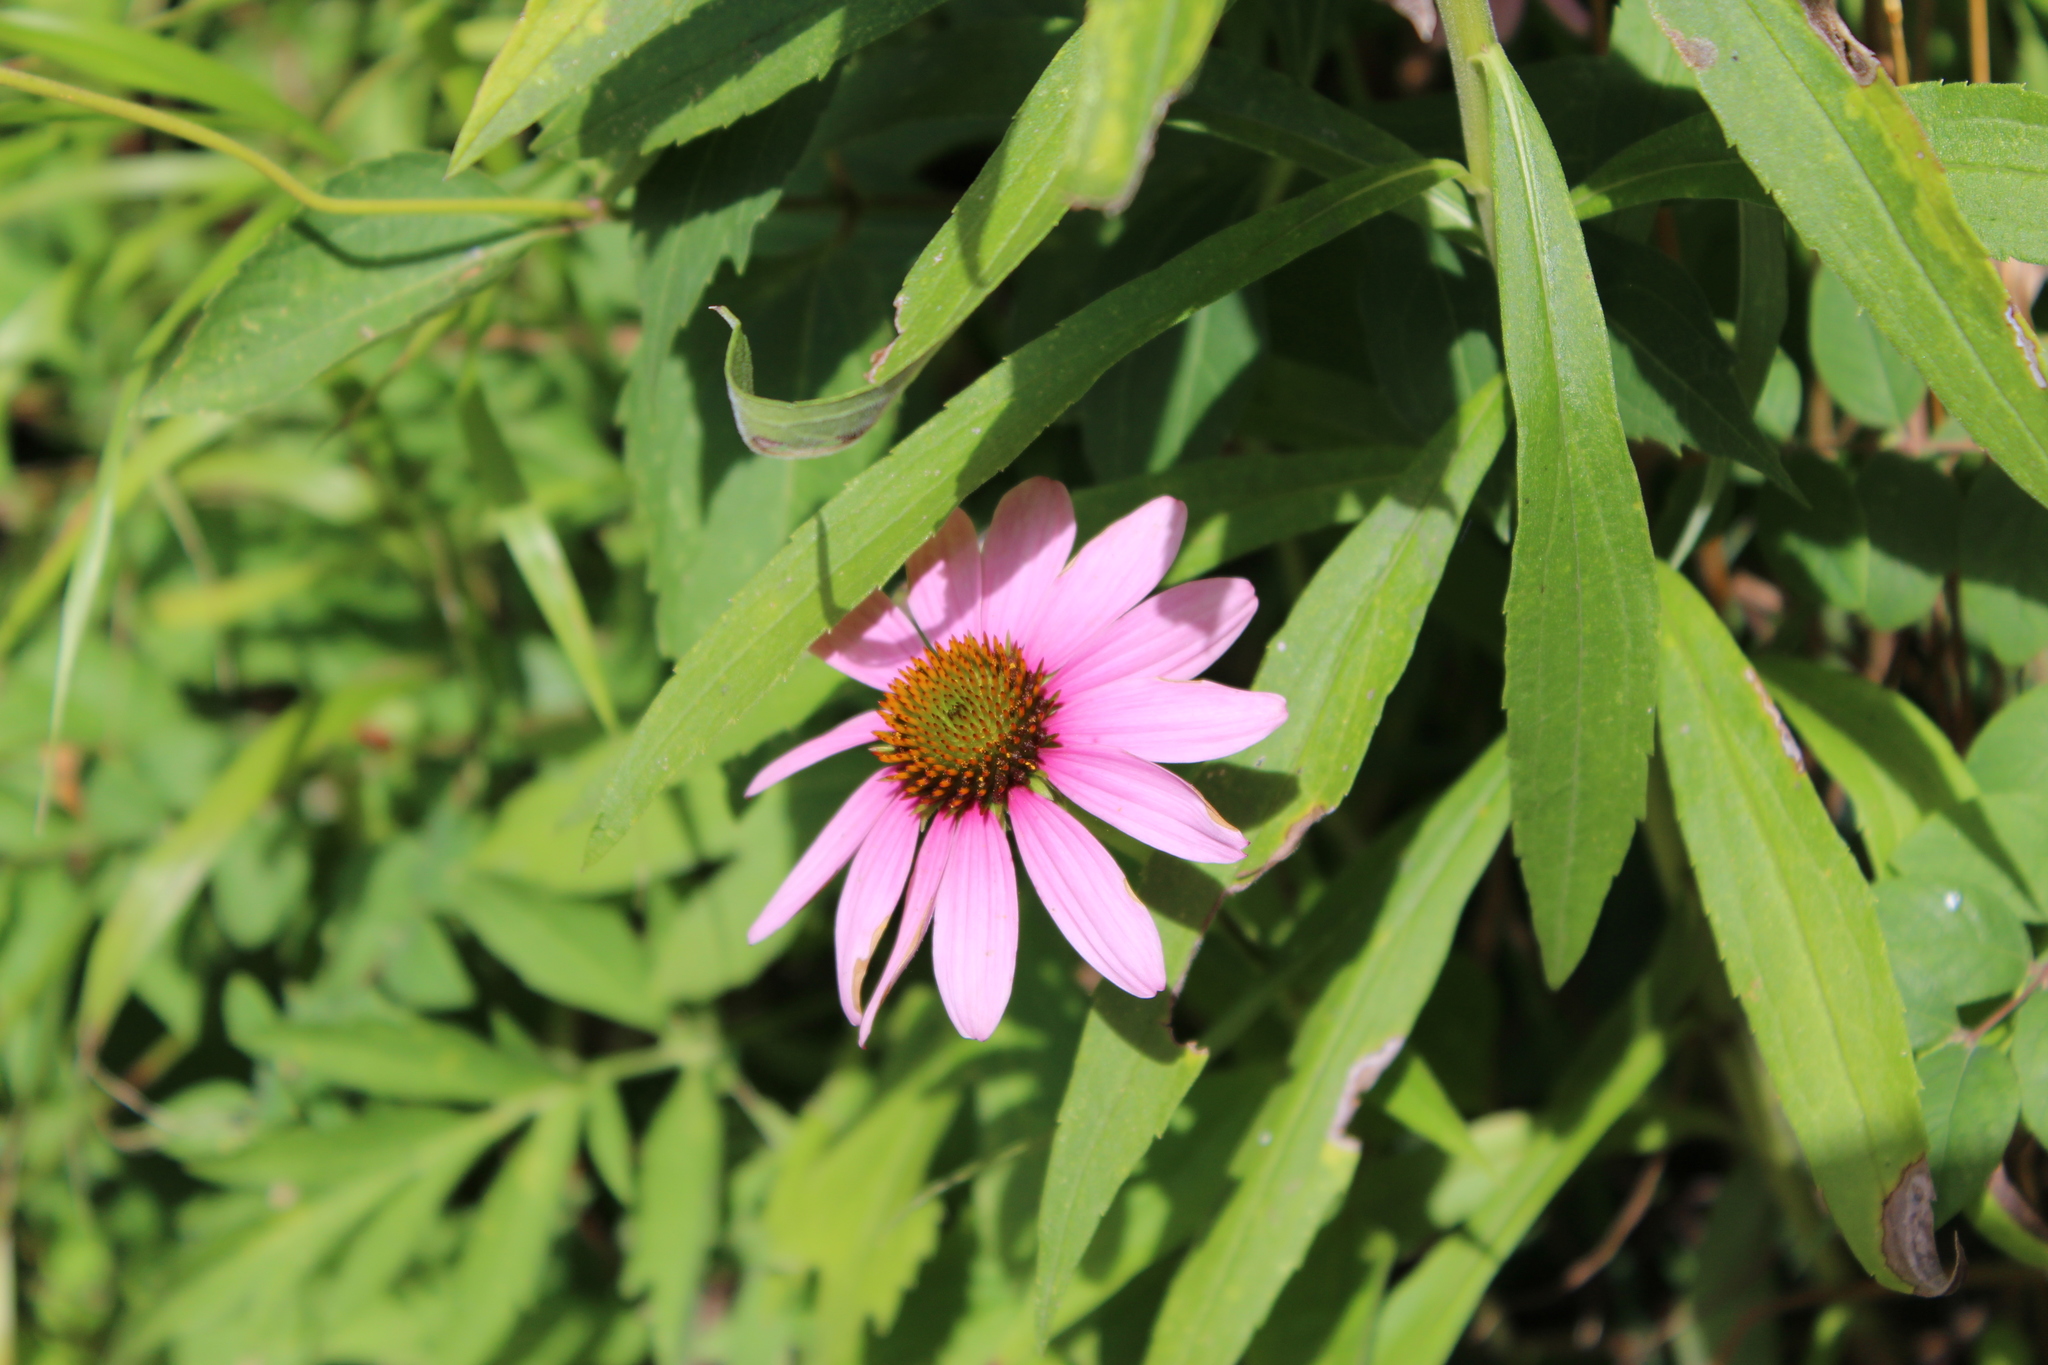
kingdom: Plantae
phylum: Tracheophyta
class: Magnoliopsida
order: Asterales
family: Asteraceae
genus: Echinacea
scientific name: Echinacea purpurea
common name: Broad-leaved purple coneflower
